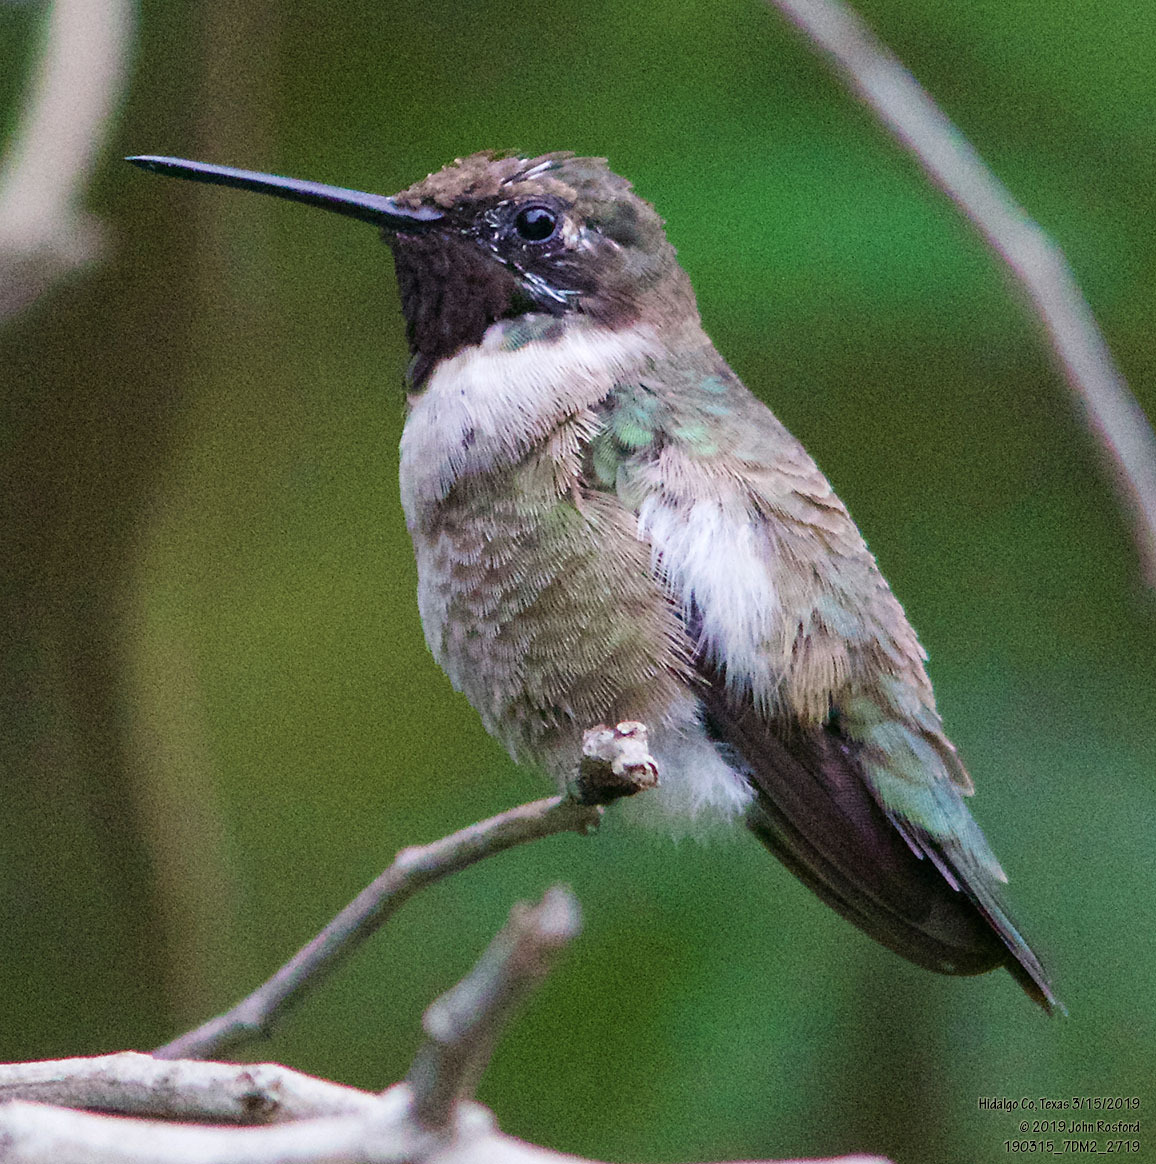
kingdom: Animalia
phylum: Chordata
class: Aves
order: Apodiformes
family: Trochilidae
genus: Archilochus
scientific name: Archilochus alexandri
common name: Black-chinned hummingbird
